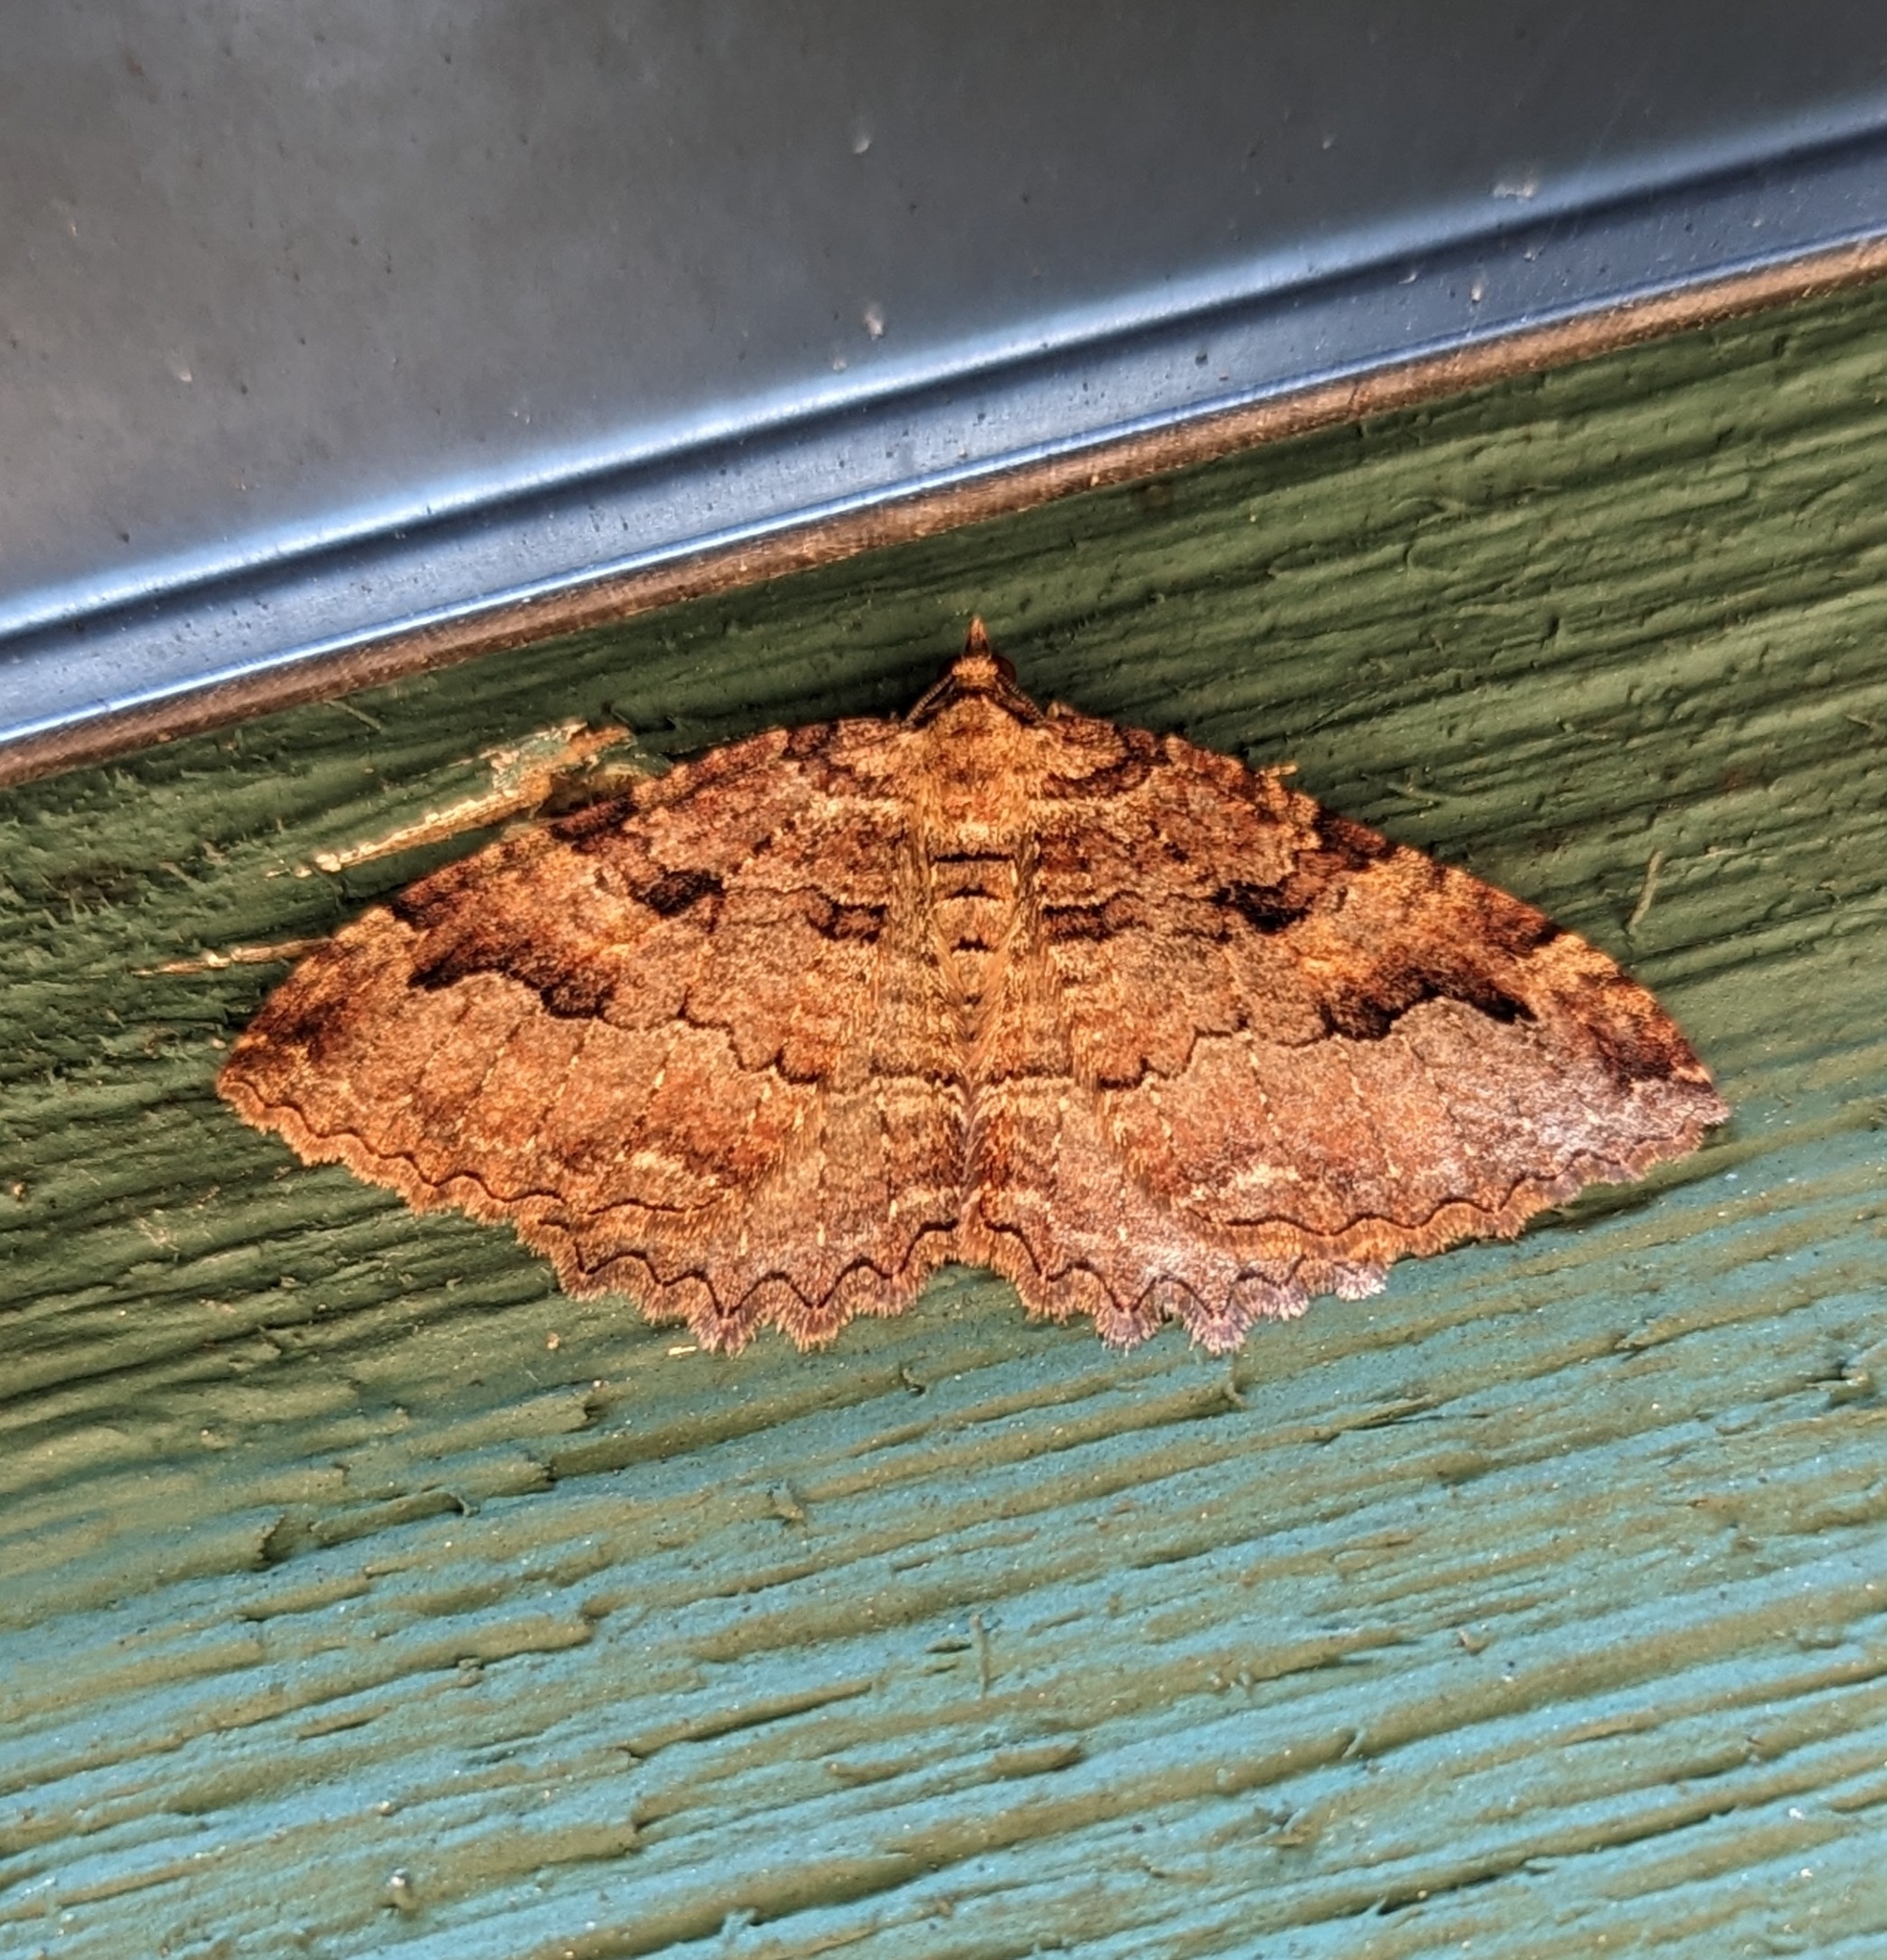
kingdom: Animalia
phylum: Arthropoda
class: Insecta
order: Lepidoptera
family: Geometridae
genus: Triphosa
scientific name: Triphosa haesitata
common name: Tissue moth
